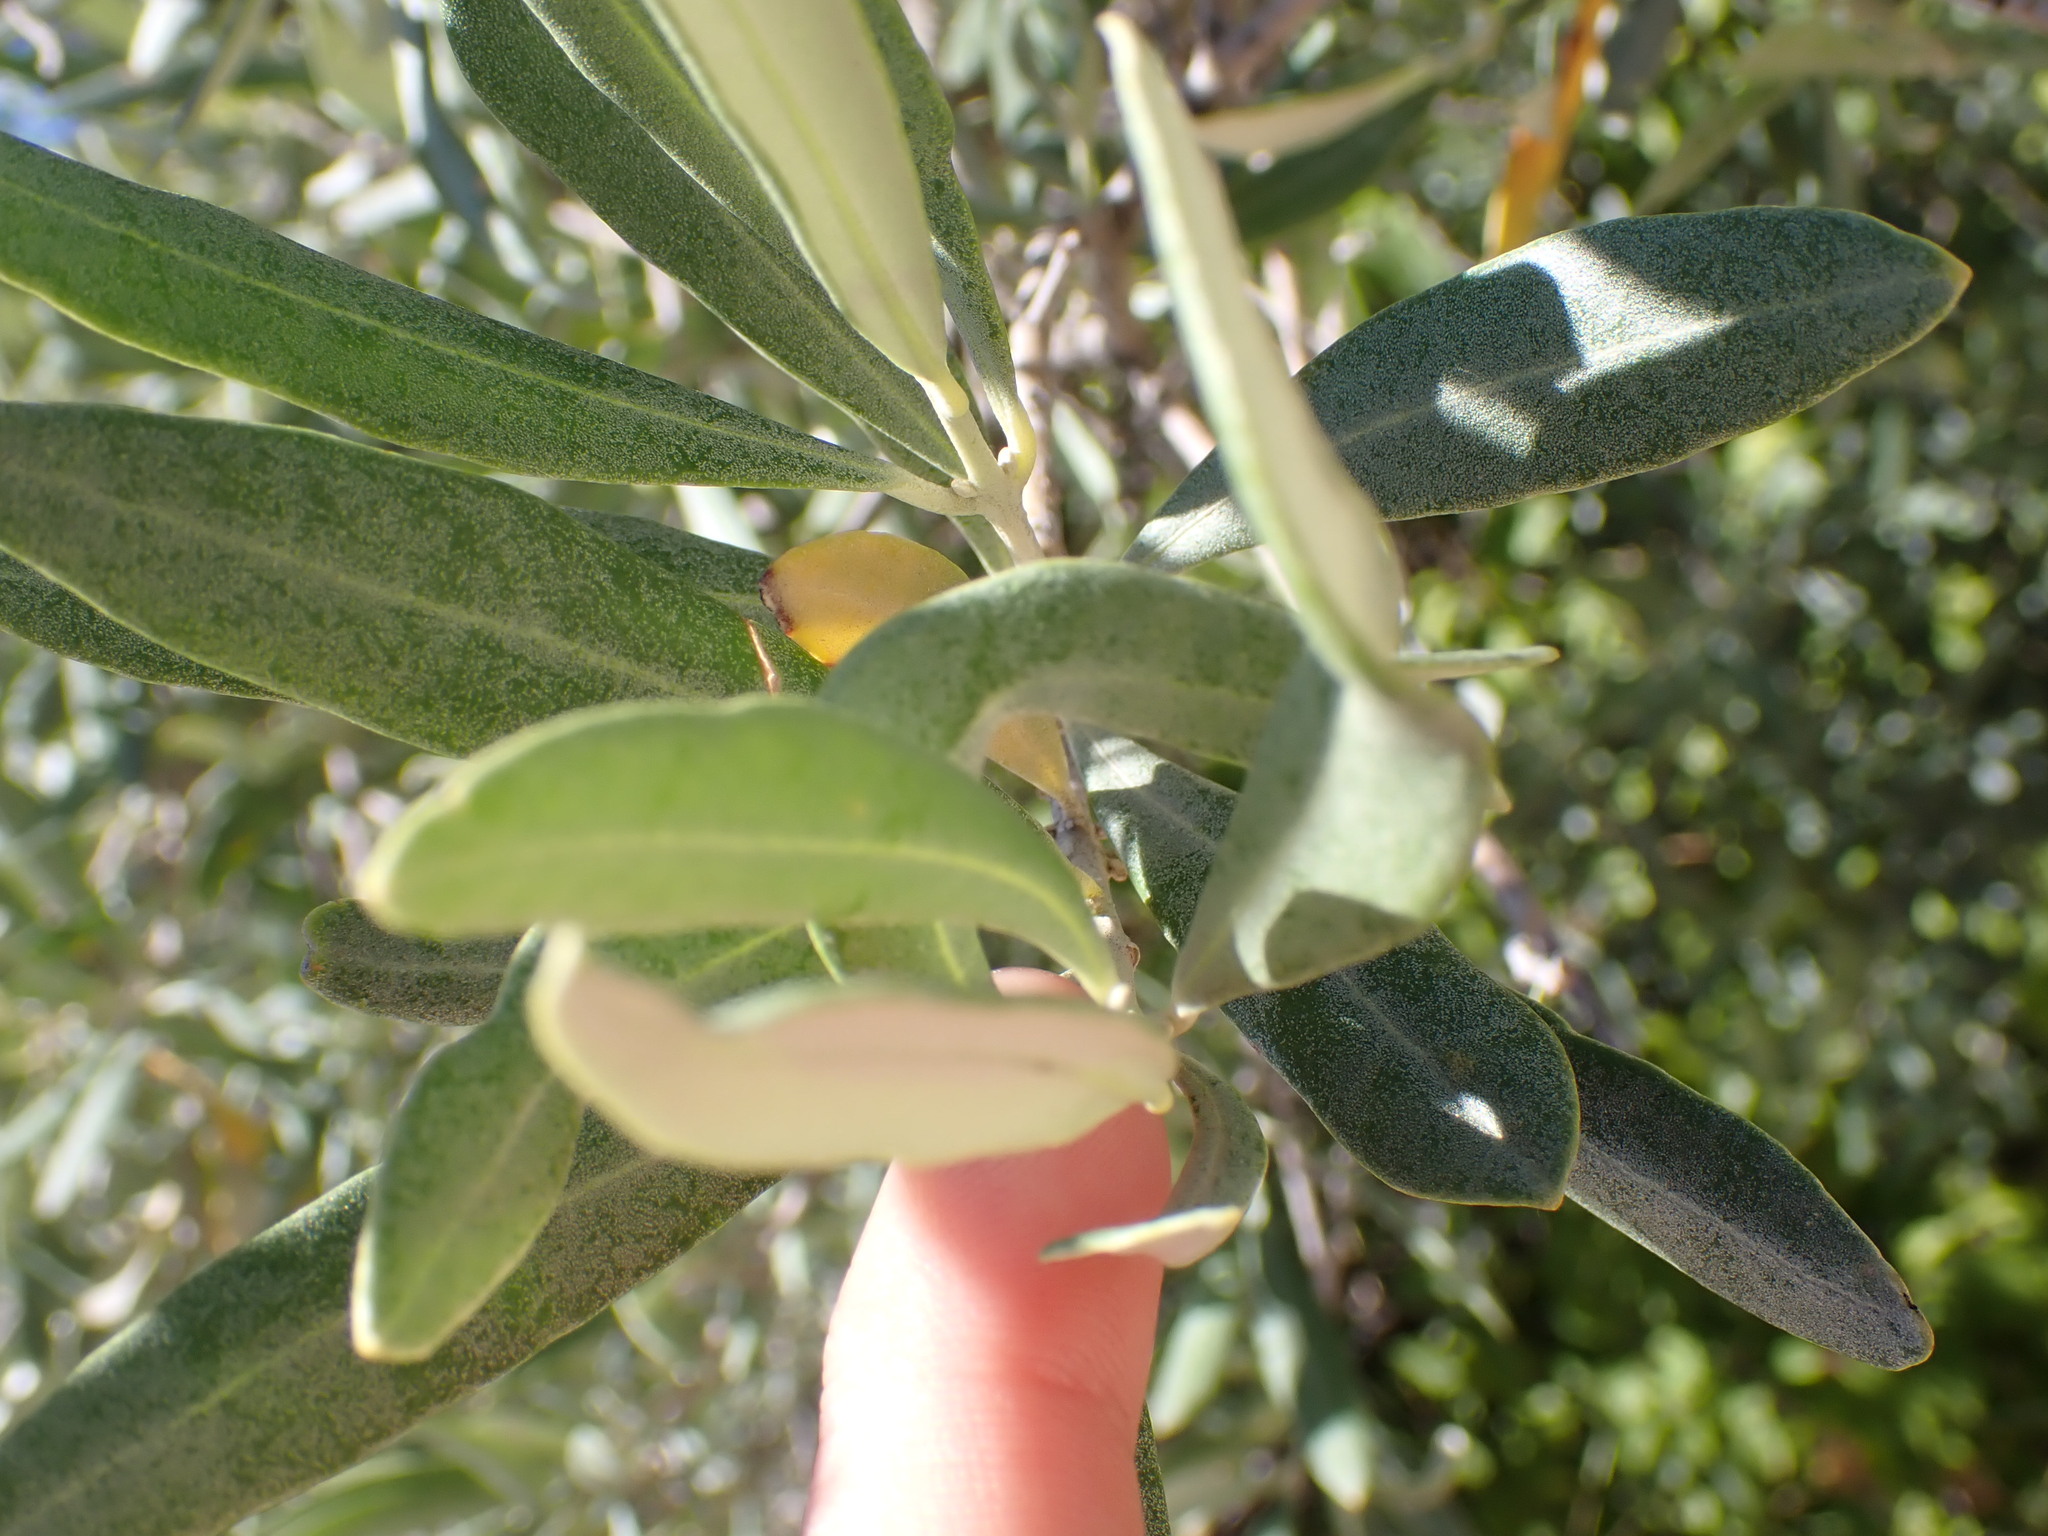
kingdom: Plantae
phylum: Tracheophyta
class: Magnoliopsida
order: Lamiales
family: Oleaceae
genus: Olea
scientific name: Olea europaea
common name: Olive
